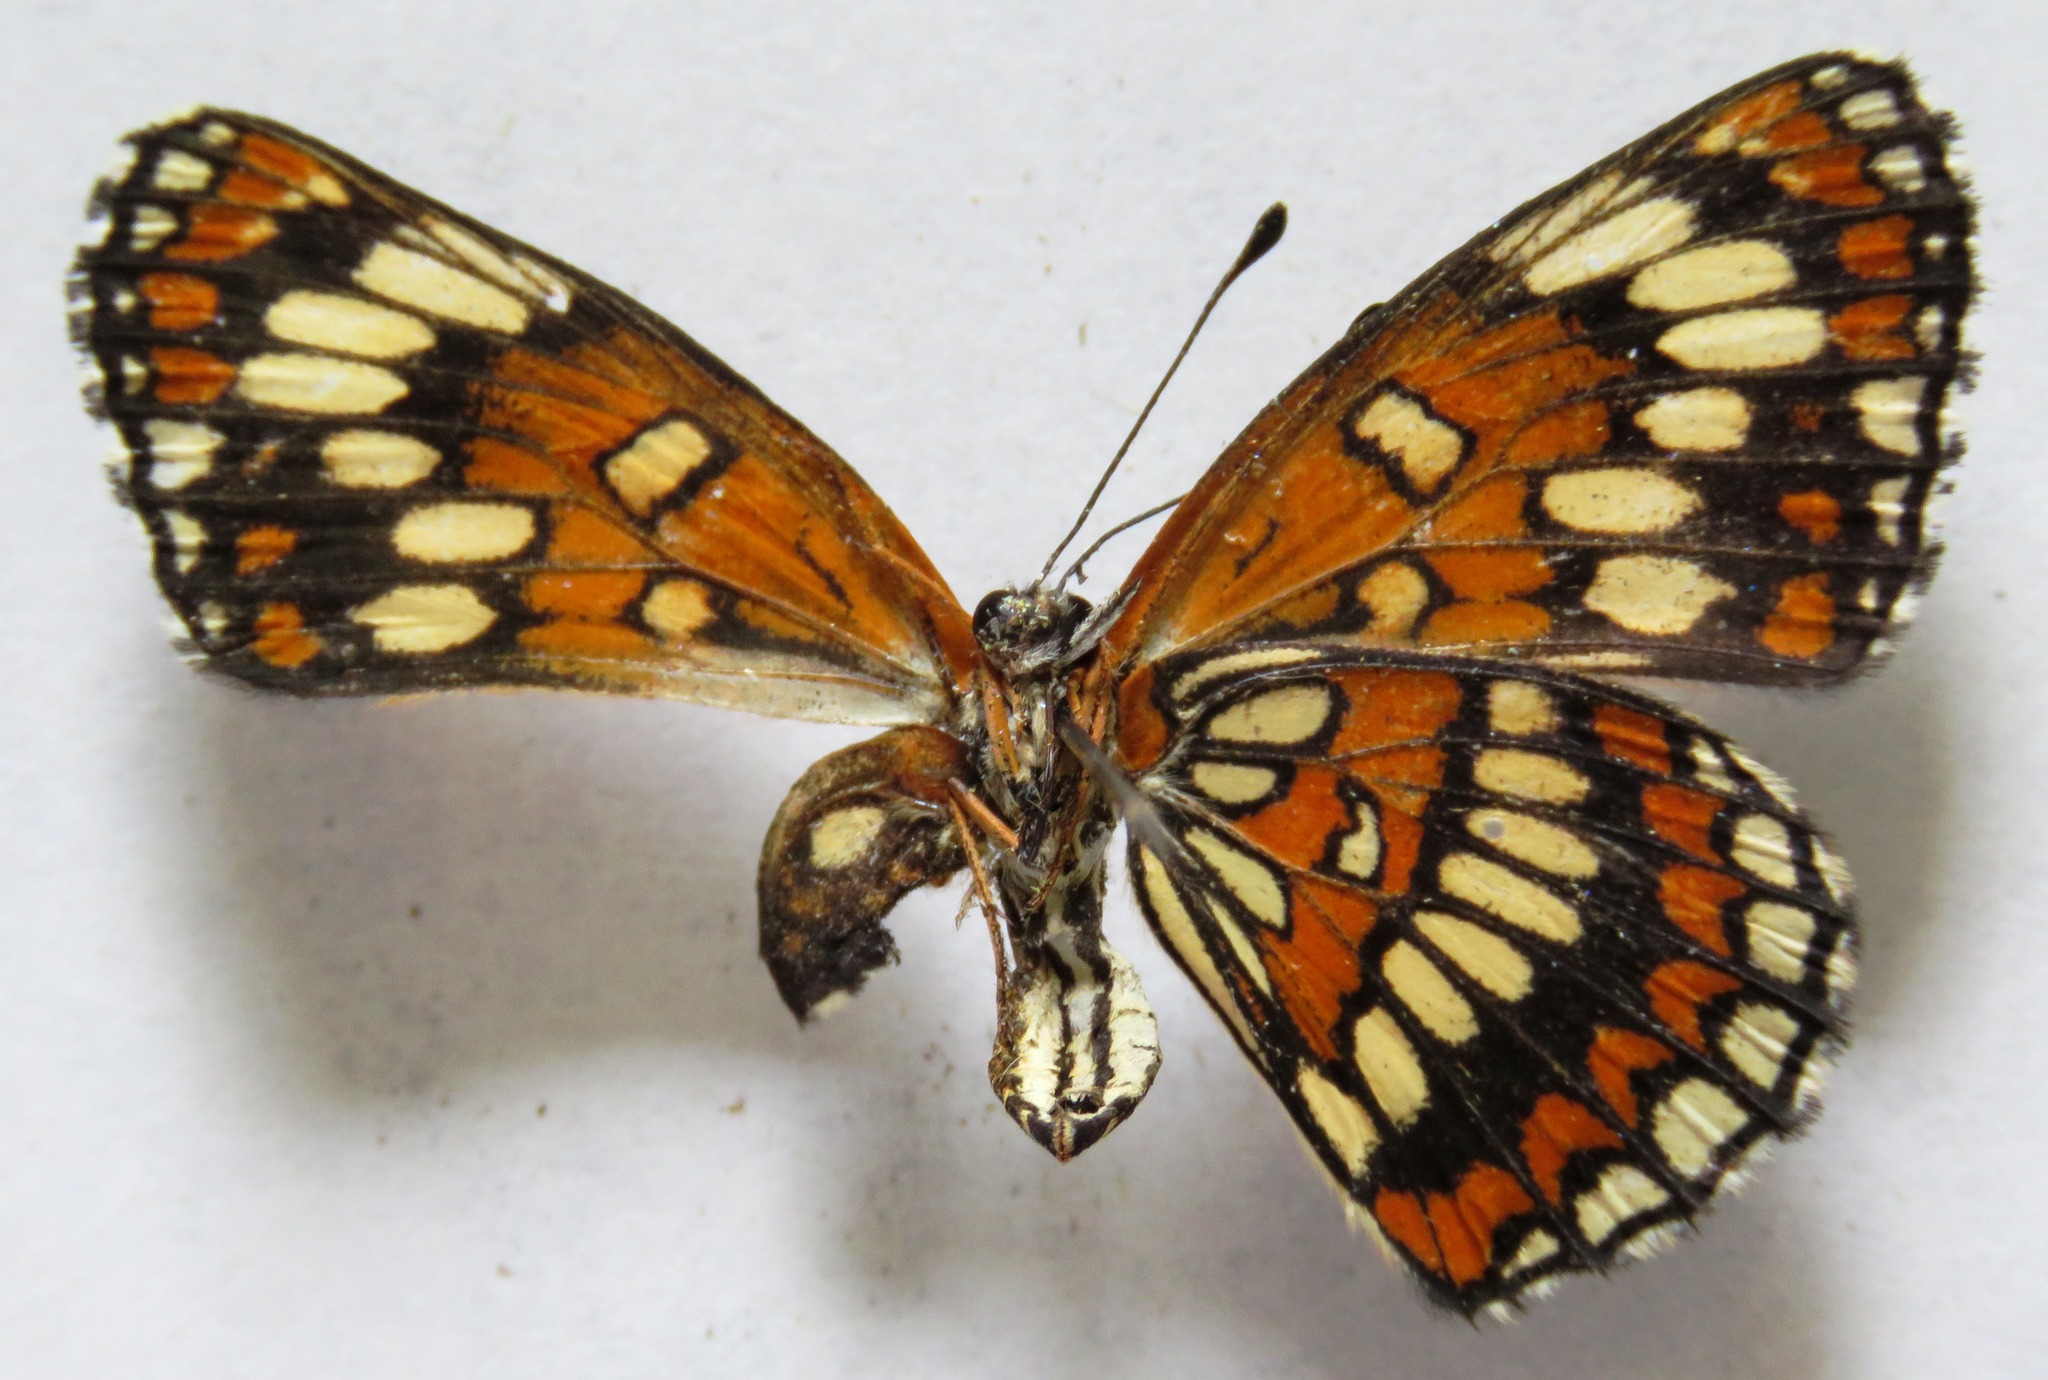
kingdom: Animalia
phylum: Arthropoda
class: Insecta
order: Lepidoptera
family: Nymphalidae
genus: Thessalia
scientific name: Thessalia theona
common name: Nymphalid moth
